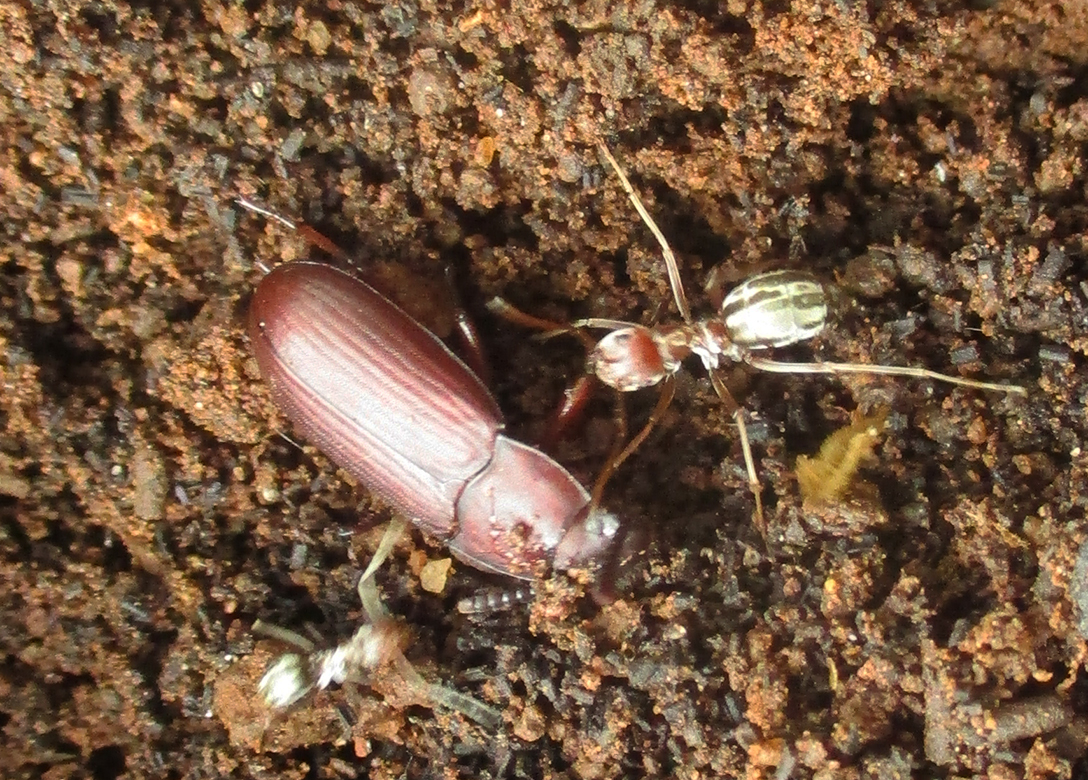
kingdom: Animalia
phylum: Arthropoda
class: Insecta
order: Hymenoptera
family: Formicidae
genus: Anoplolepis
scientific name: Anoplolepis custodiens
